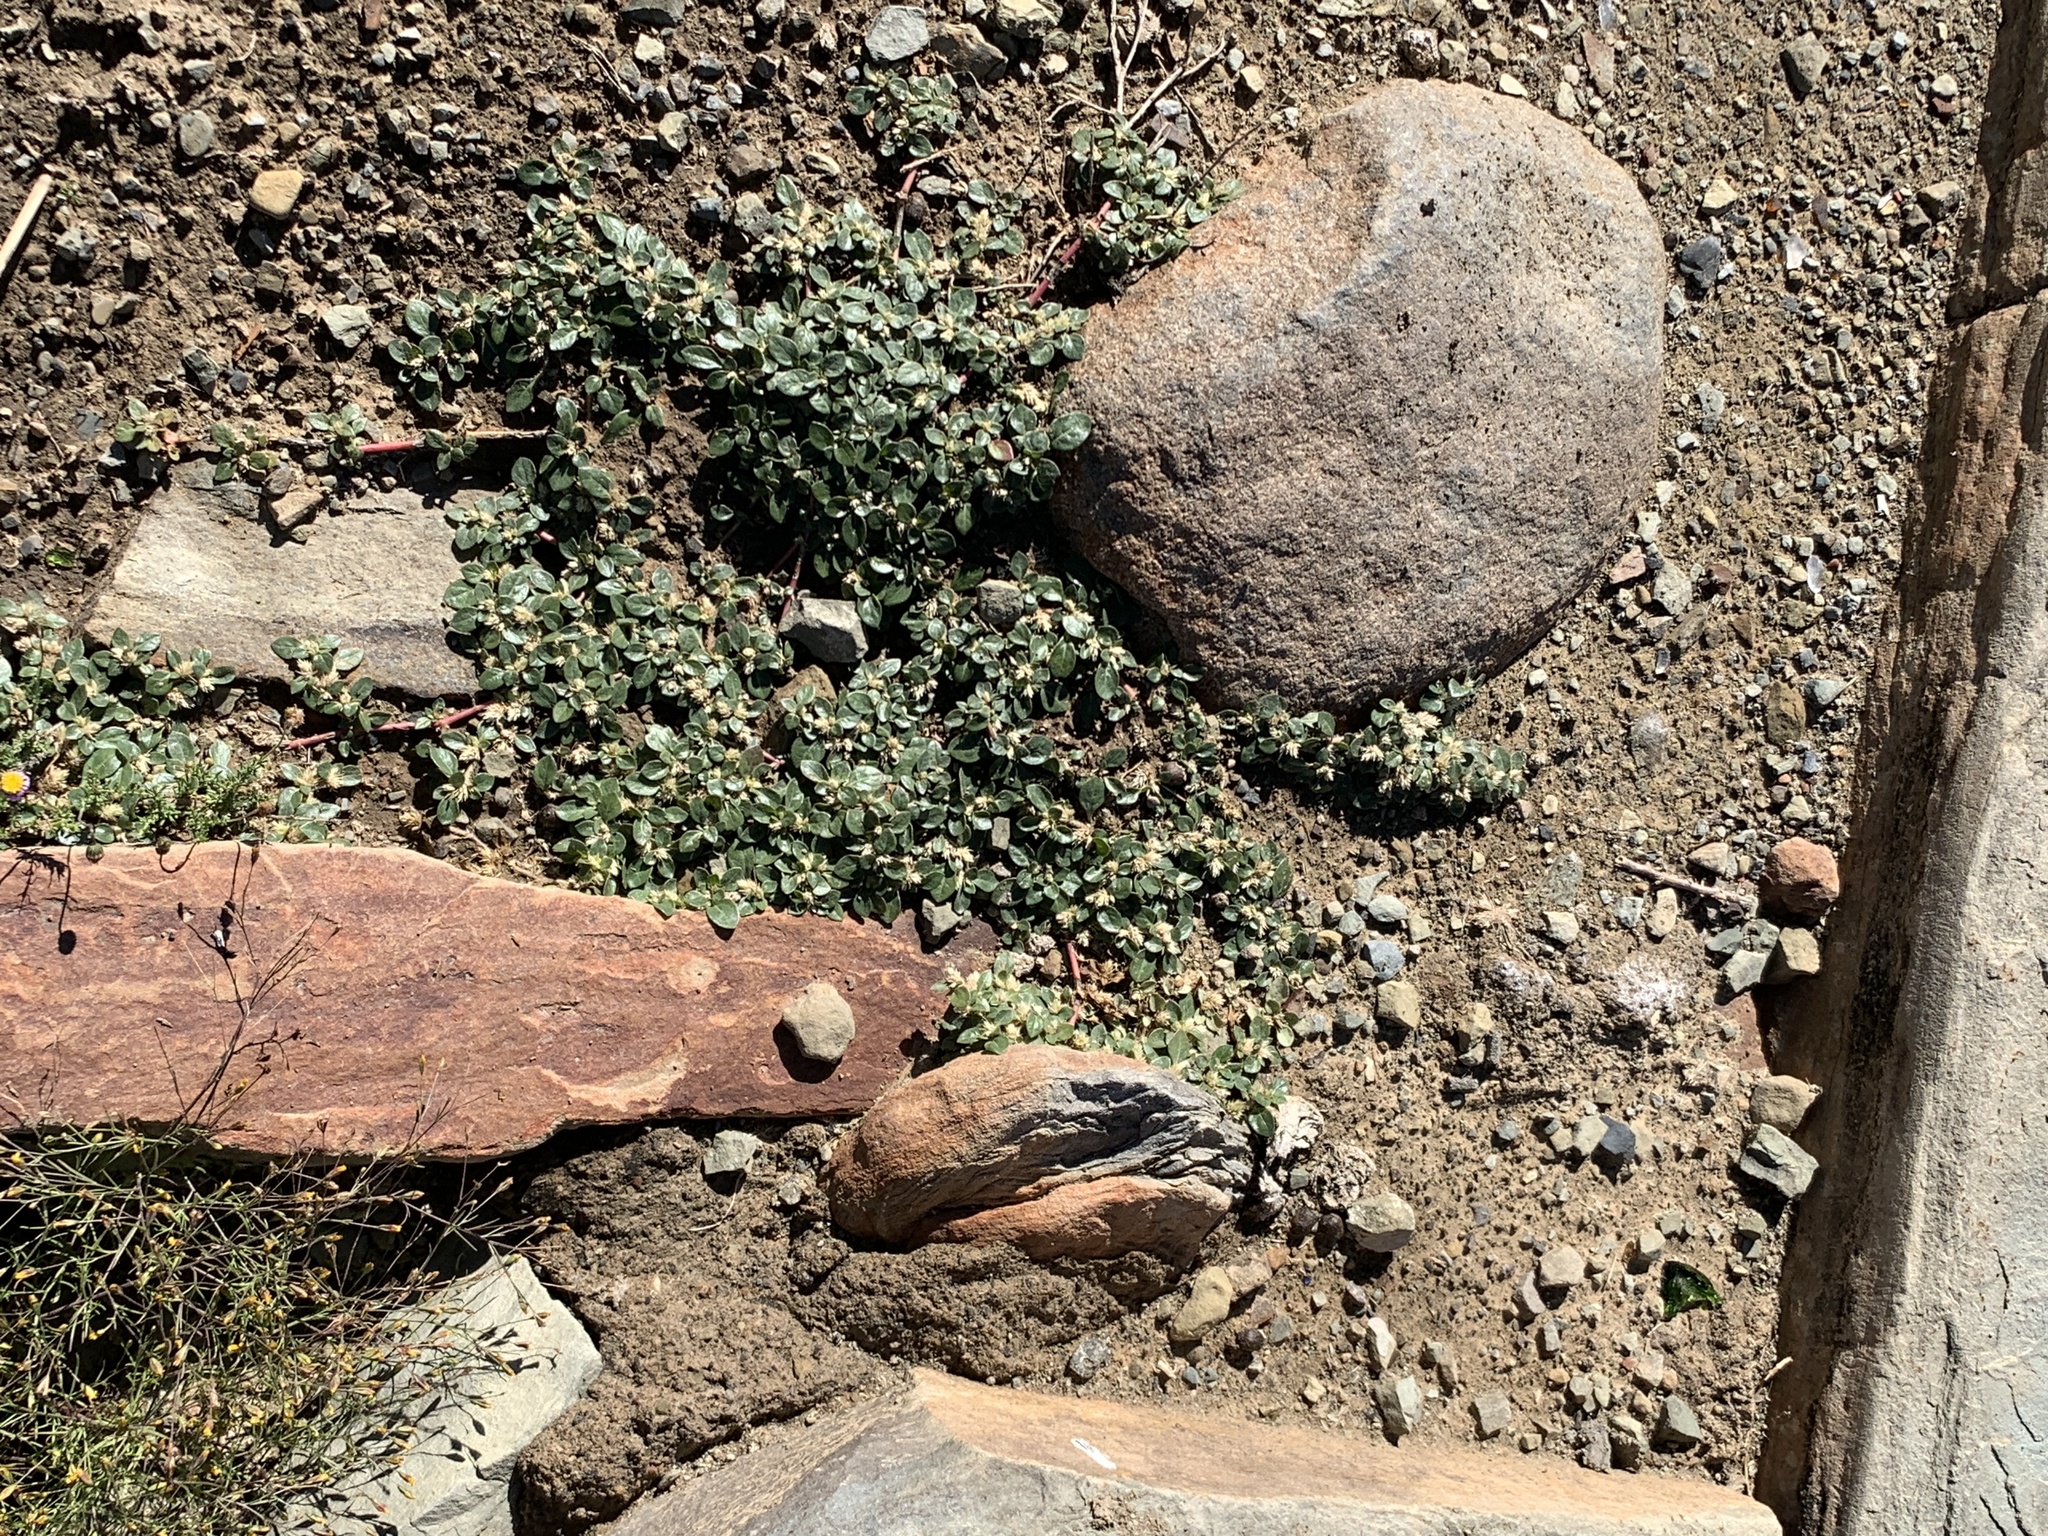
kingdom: Plantae
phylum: Tracheophyta
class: Magnoliopsida
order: Caryophyllales
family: Amaranthaceae
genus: Alternanthera
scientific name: Alternanthera pungens
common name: Khakiweed
